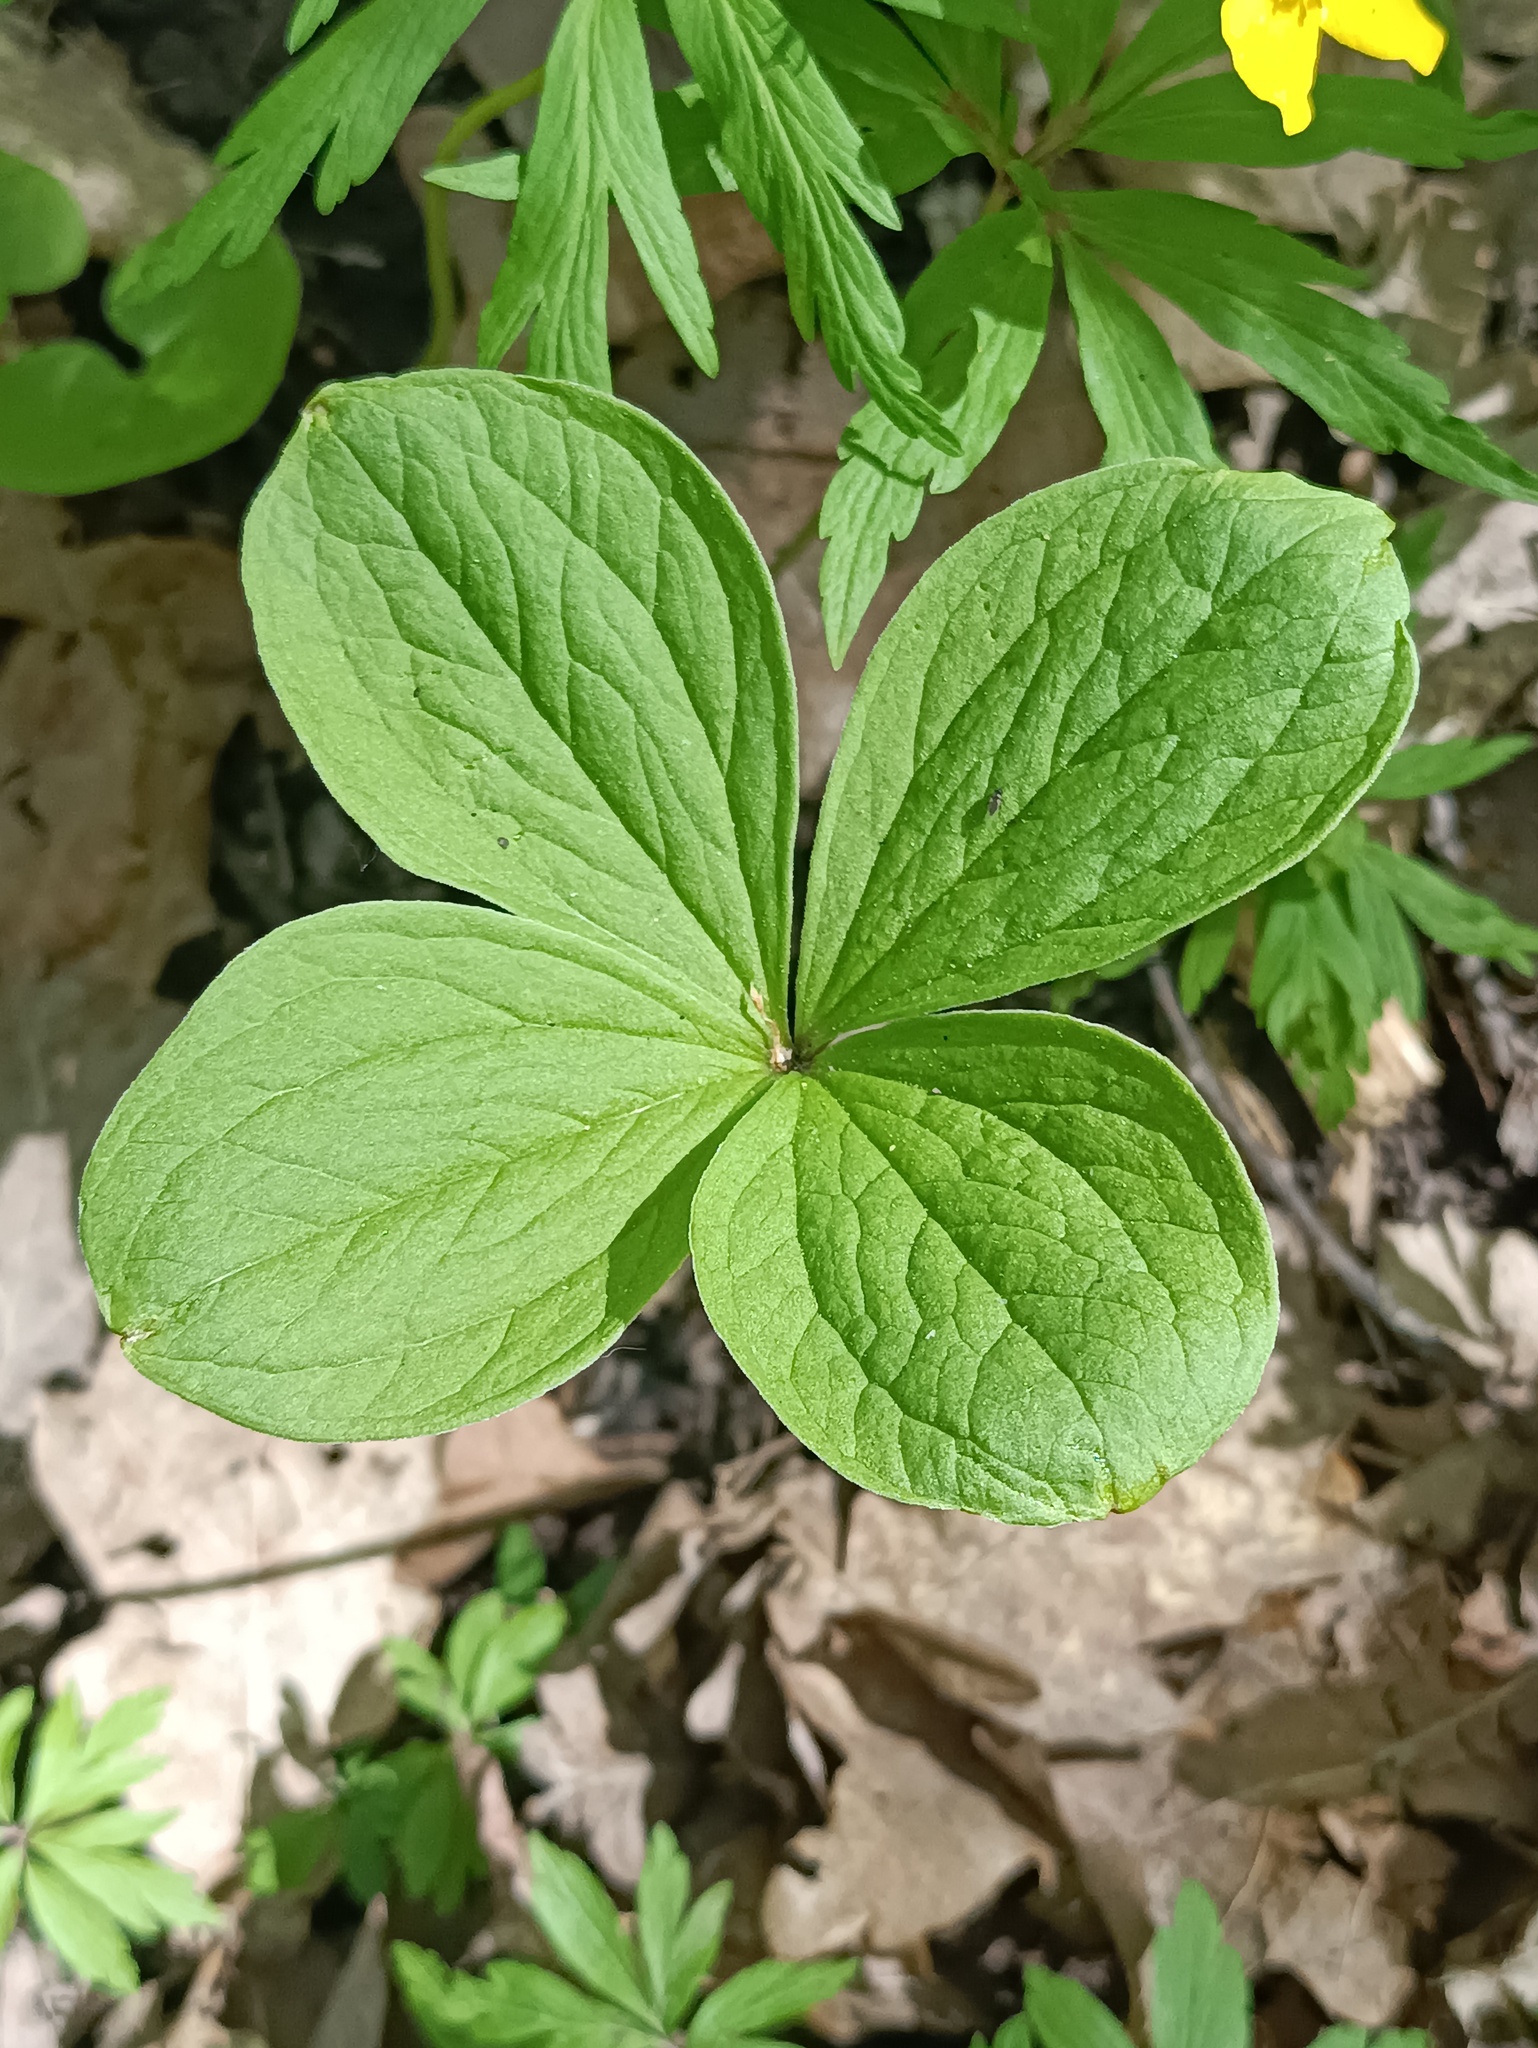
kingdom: Plantae
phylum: Tracheophyta
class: Liliopsida
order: Liliales
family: Melanthiaceae
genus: Paris
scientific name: Paris quadrifolia
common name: Herb-paris
